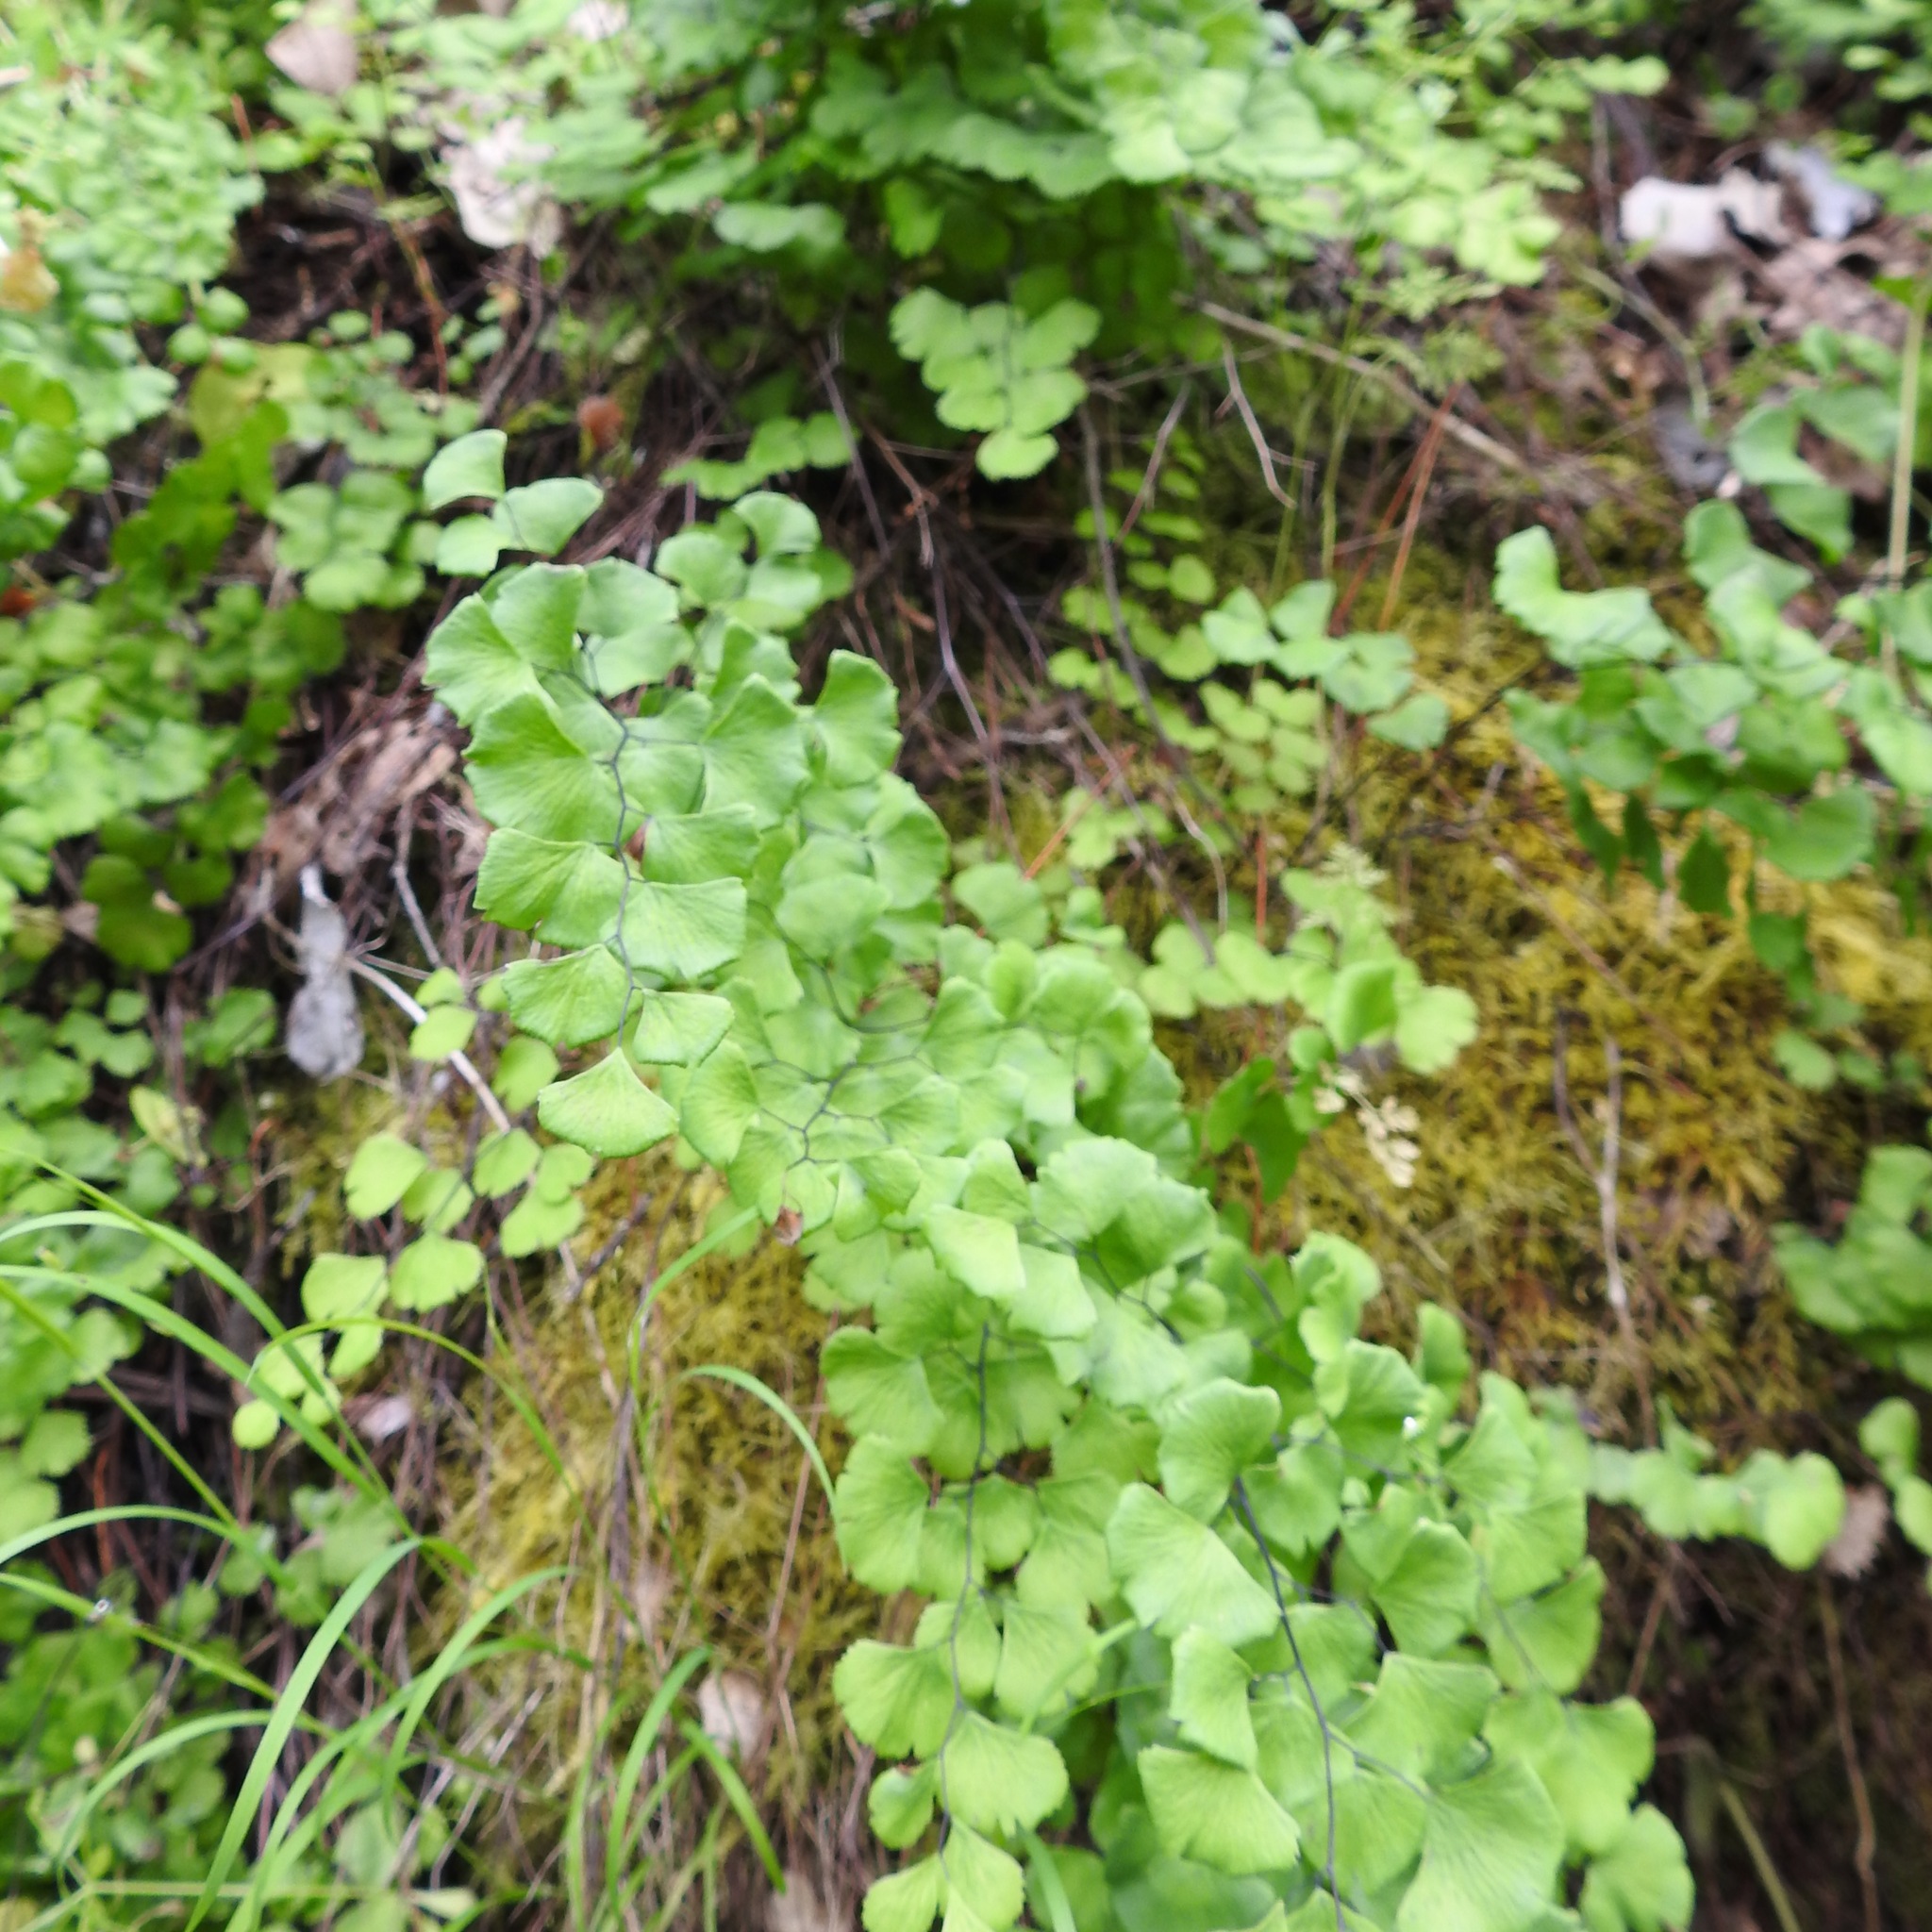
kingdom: Plantae
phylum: Tracheophyta
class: Polypodiopsida
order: Polypodiales
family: Pteridaceae
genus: Adiantum
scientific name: Adiantum jordanii
